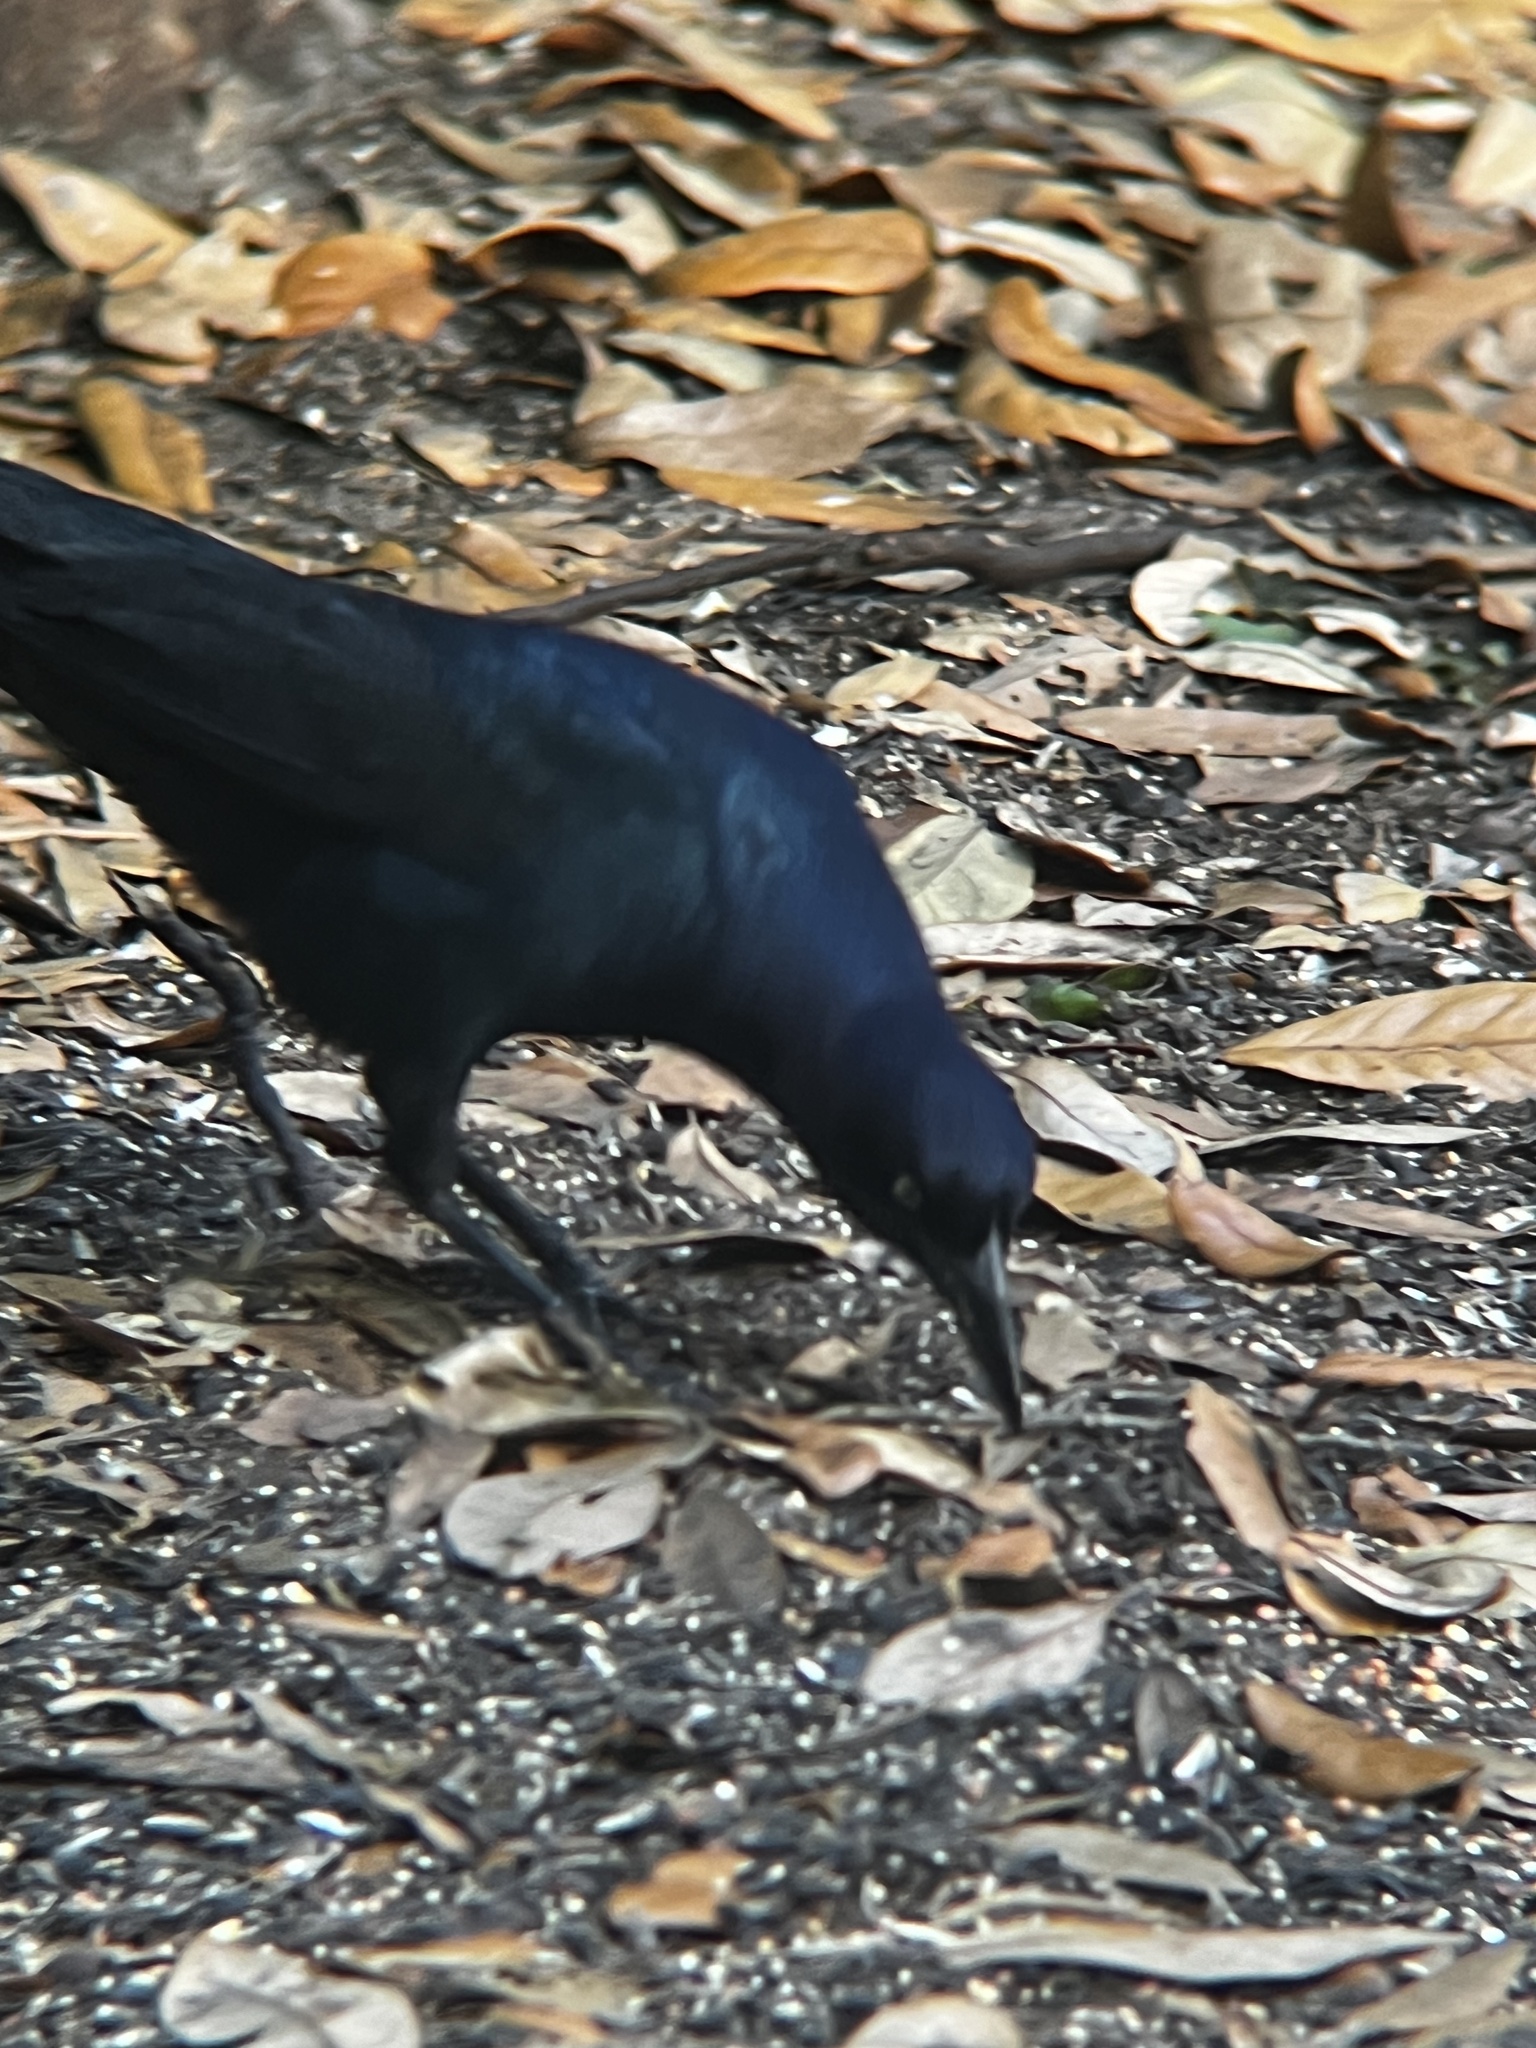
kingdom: Animalia
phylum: Chordata
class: Aves
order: Passeriformes
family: Icteridae
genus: Quiscalus
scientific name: Quiscalus major
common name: Boat-tailed grackle
